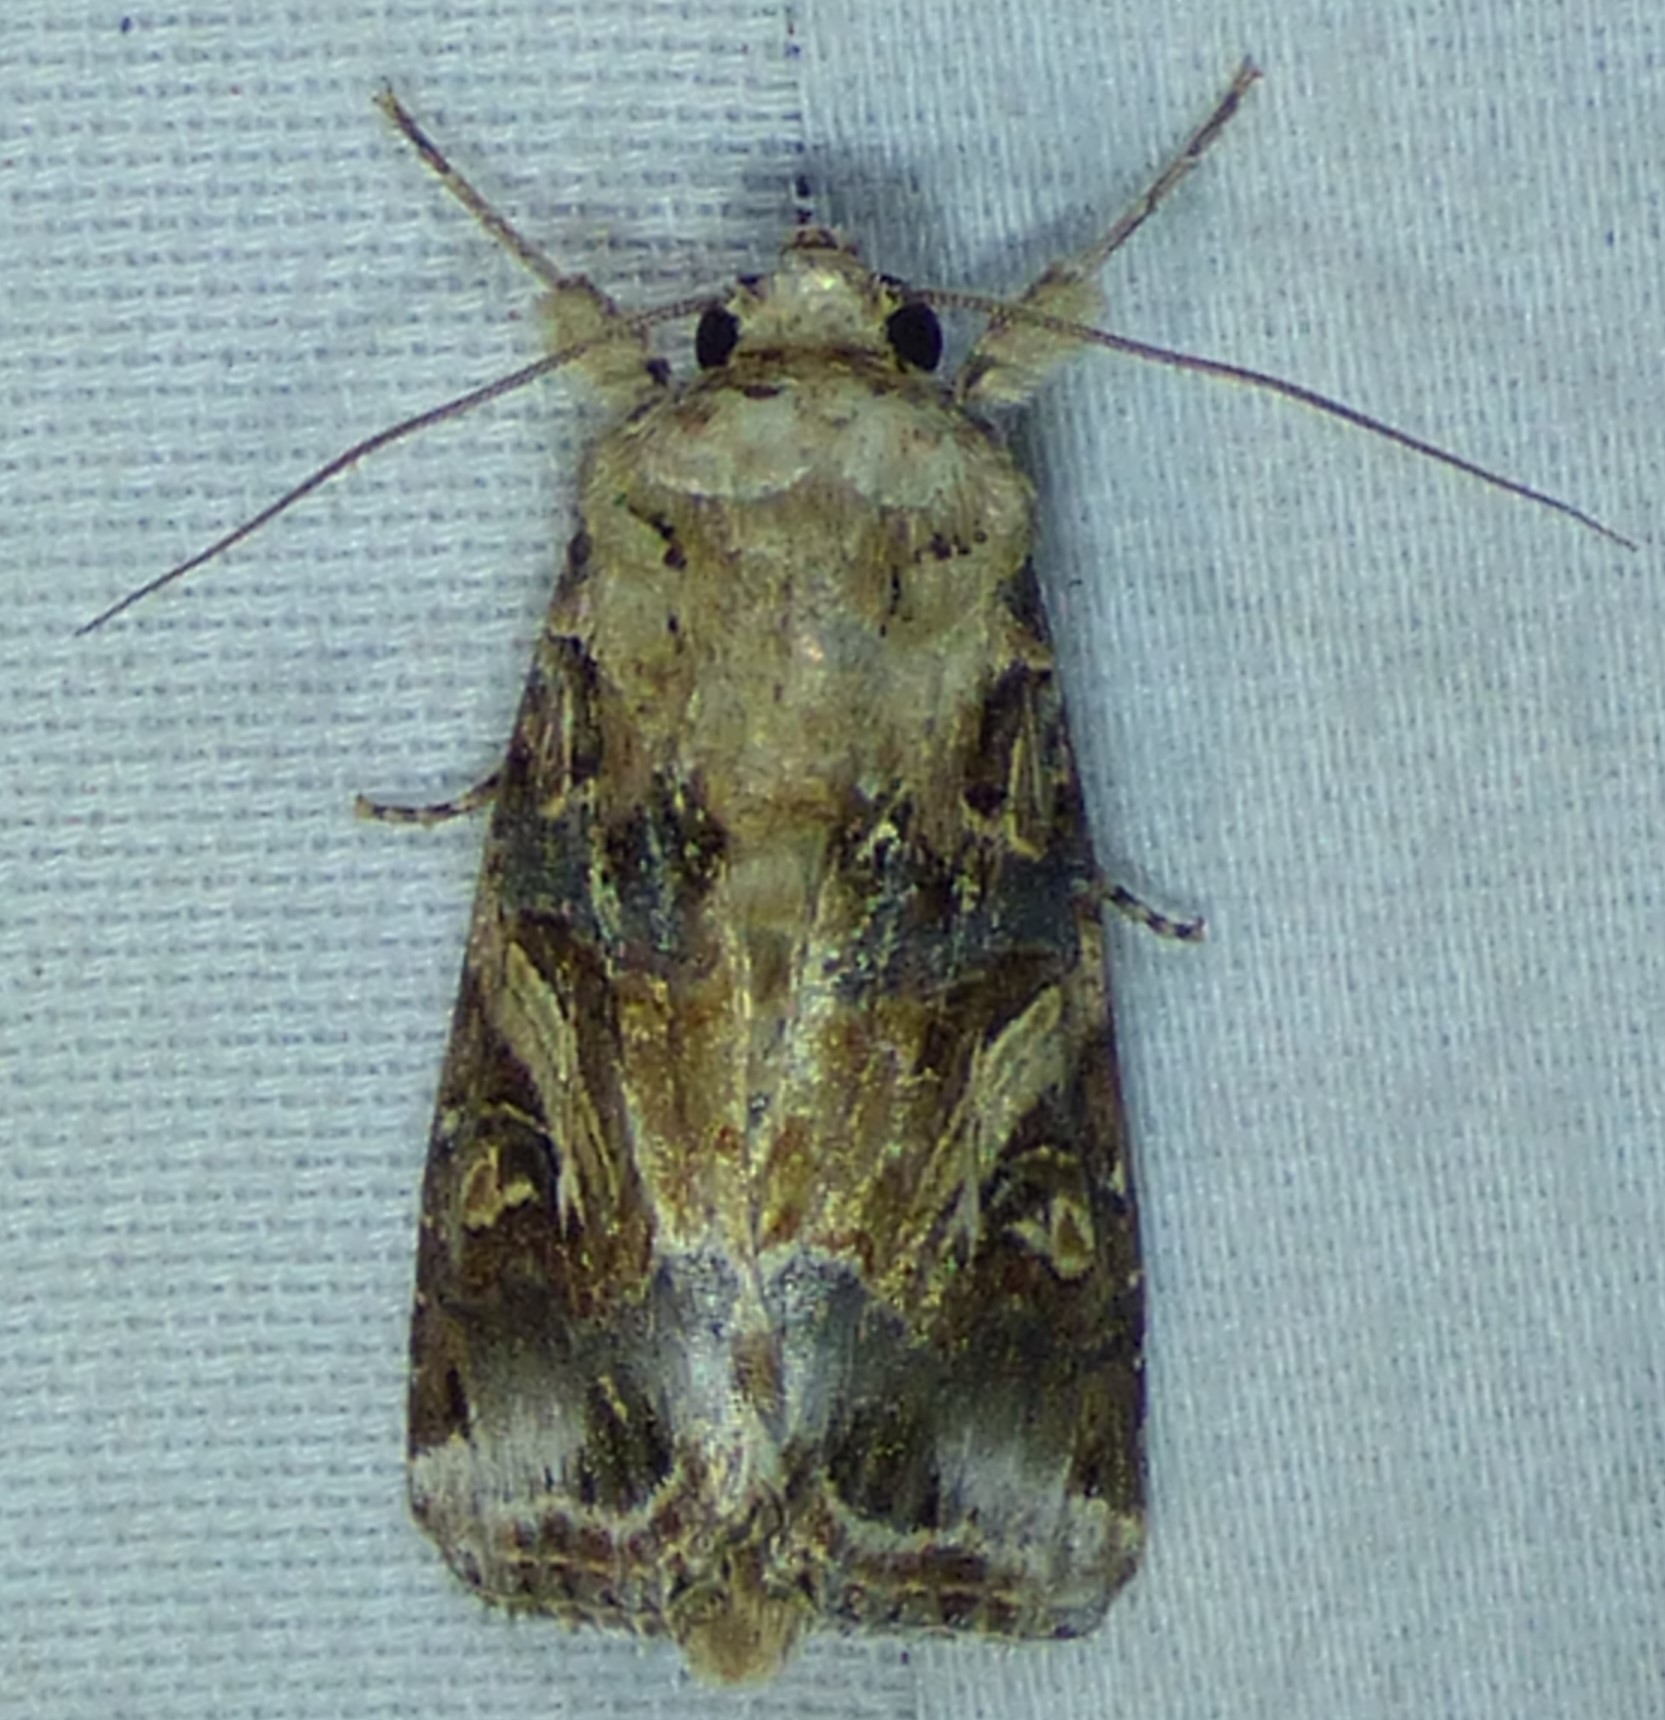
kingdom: Animalia
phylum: Arthropoda
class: Insecta
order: Lepidoptera
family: Noctuidae
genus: Spodoptera
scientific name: Spodoptera ornithogalli
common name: Yellow-striped armyworm
